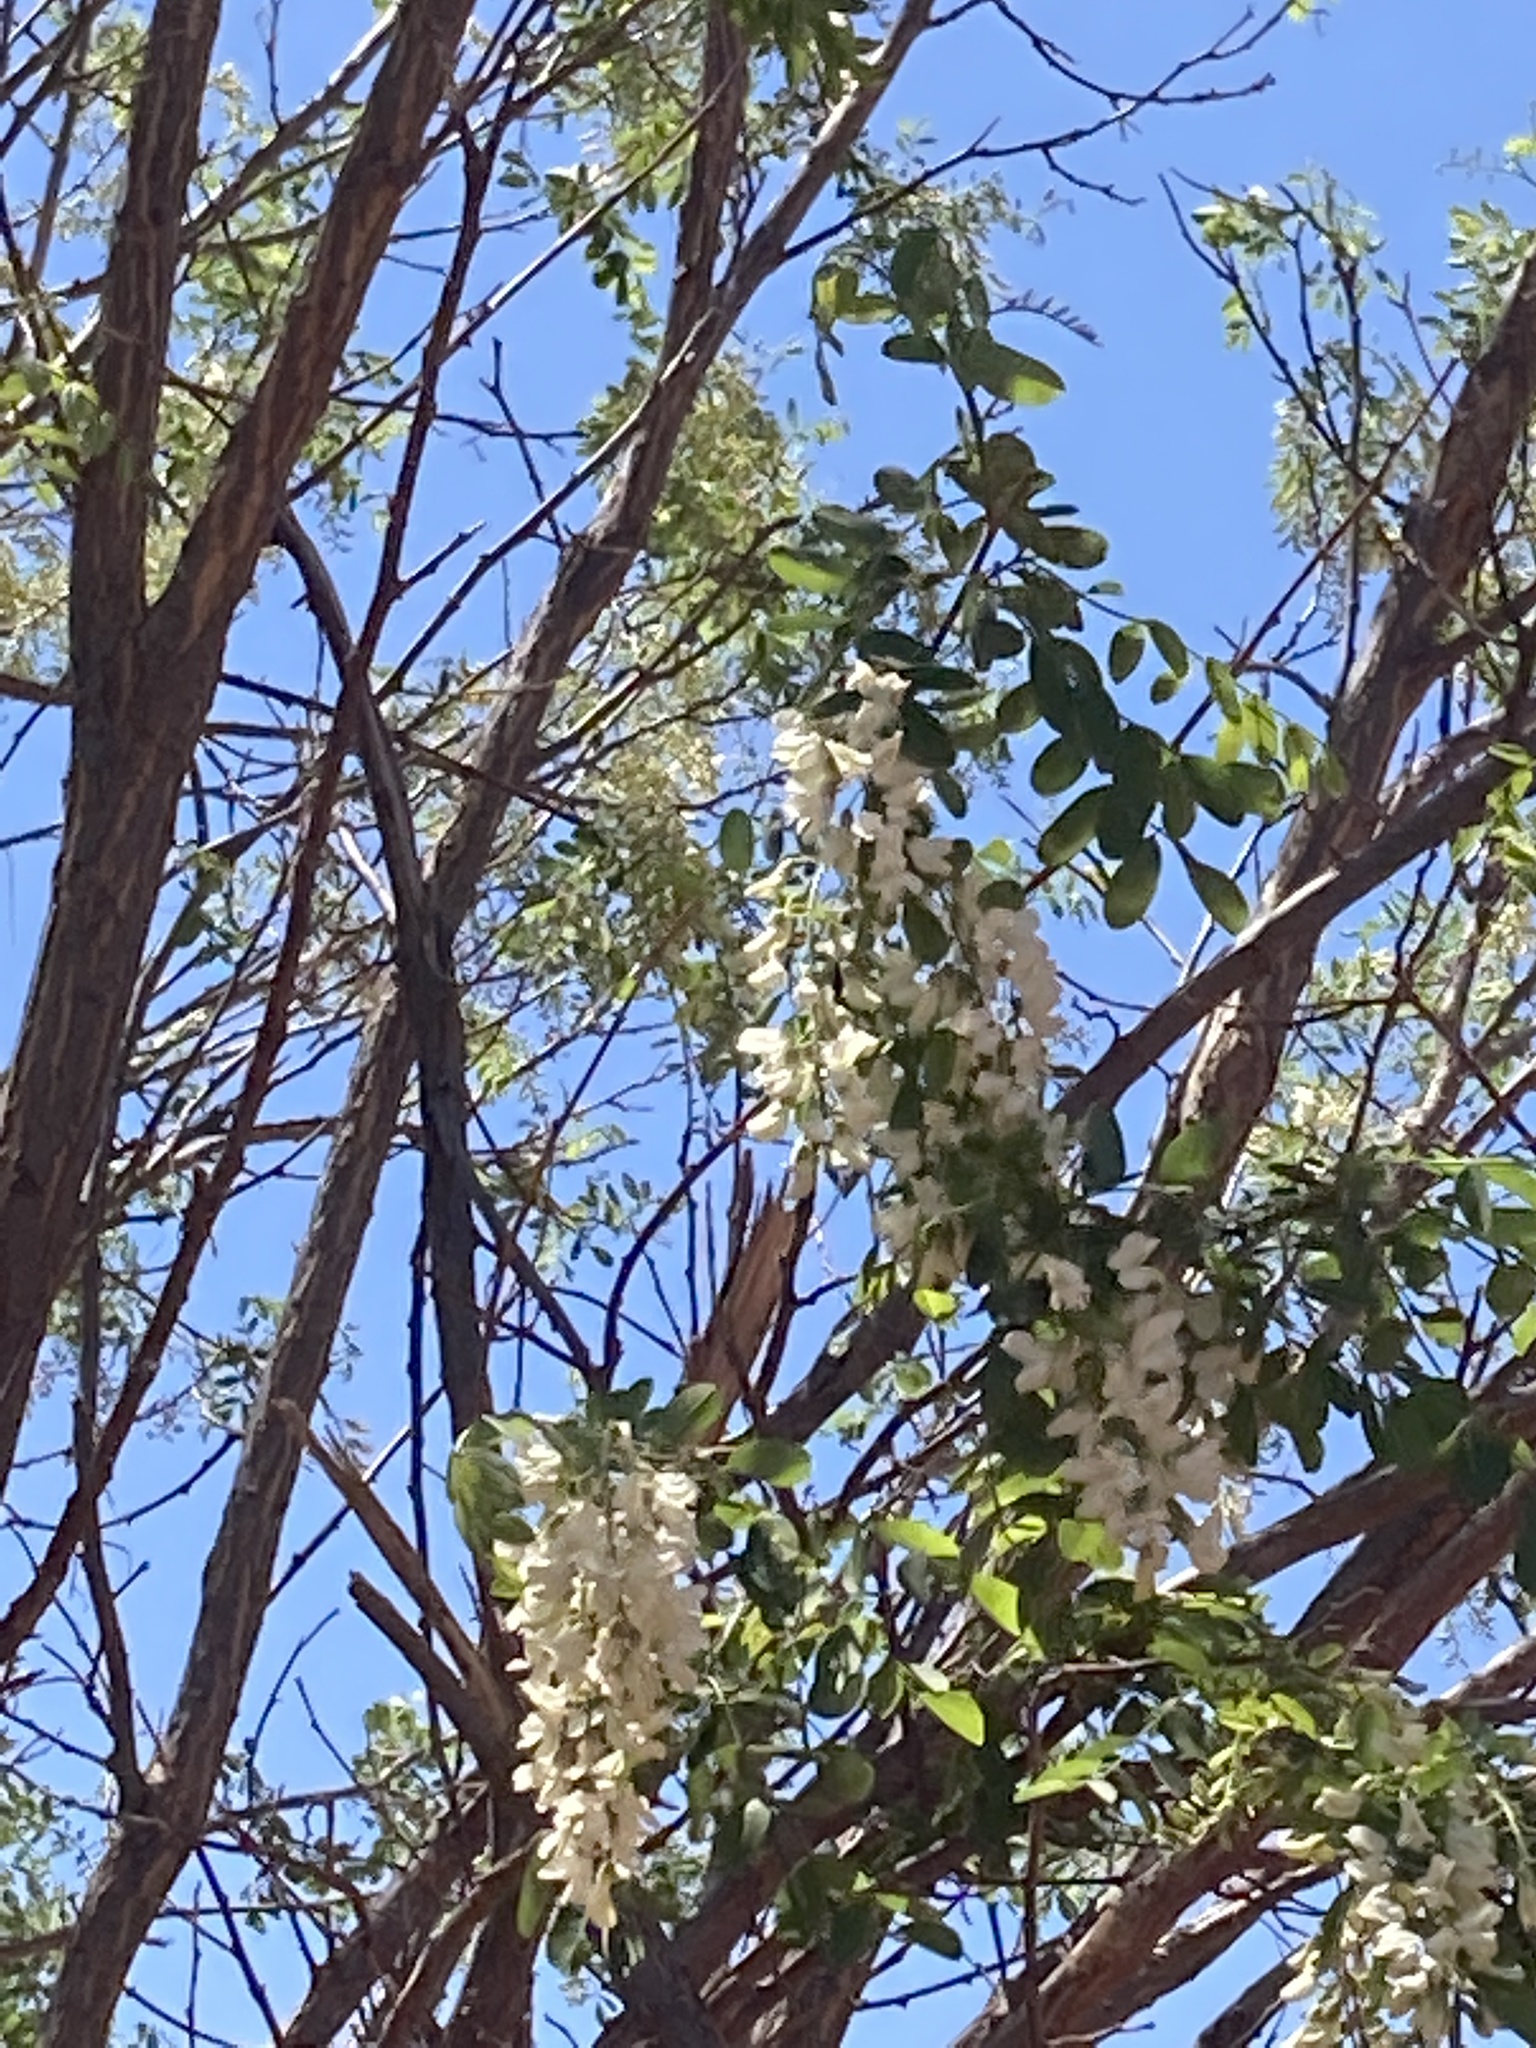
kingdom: Plantae
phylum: Tracheophyta
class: Magnoliopsida
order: Fabales
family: Fabaceae
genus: Robinia
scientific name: Robinia pseudoacacia
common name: Black locust
